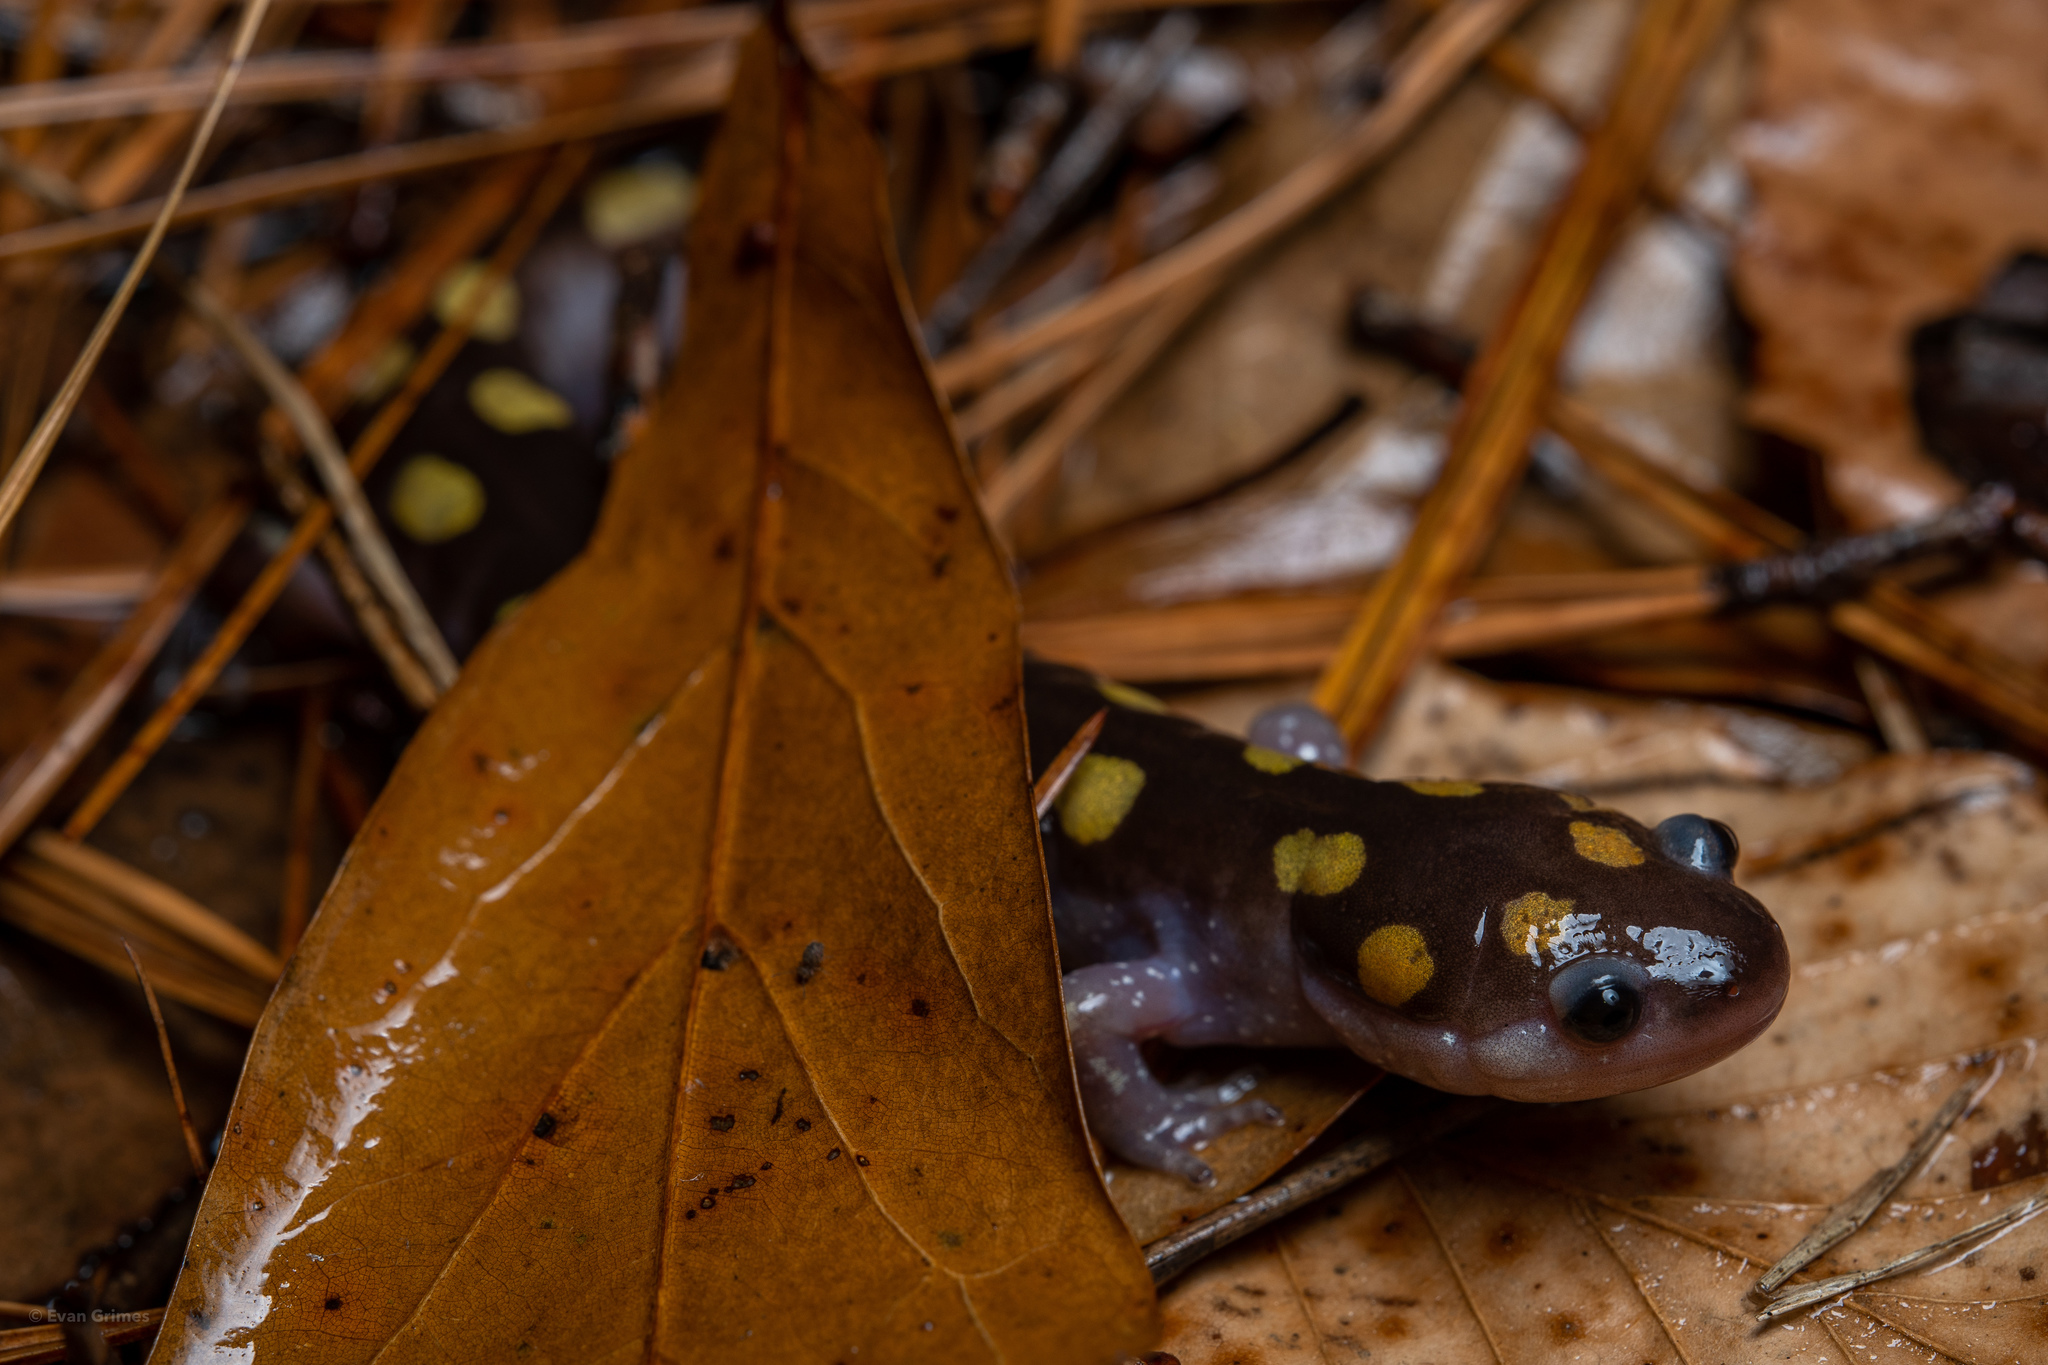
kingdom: Animalia
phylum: Chordata
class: Amphibia
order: Caudata
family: Ambystomatidae
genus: Ambystoma
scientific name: Ambystoma maculatum
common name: Spotted salamander
